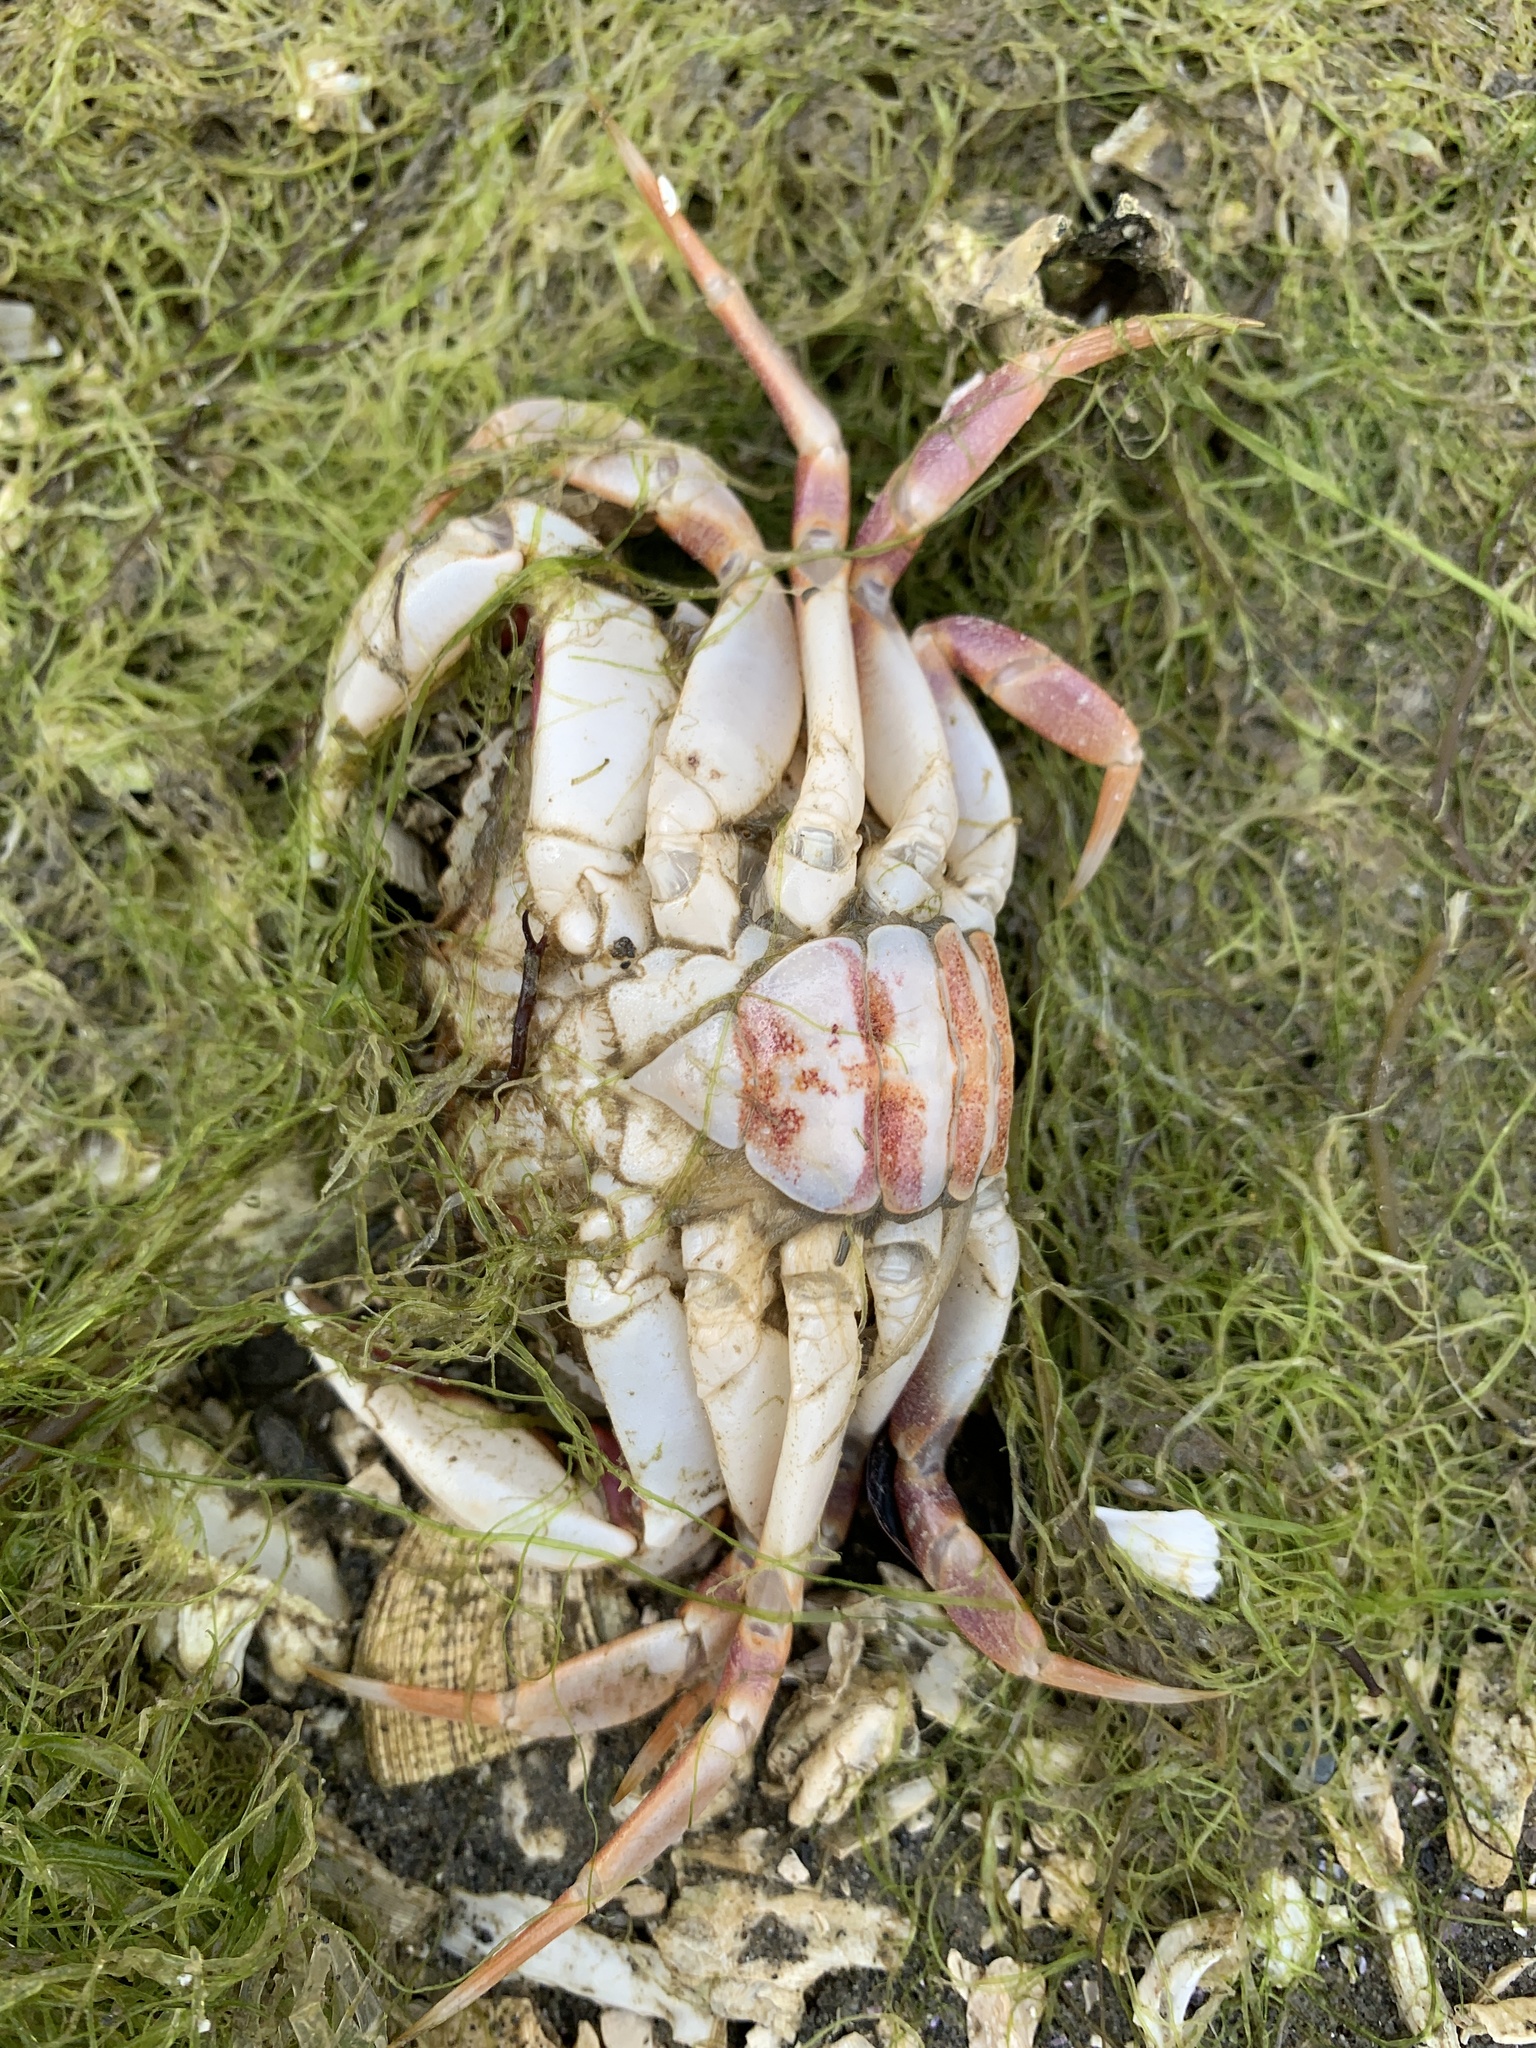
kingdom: Animalia
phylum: Arthropoda
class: Malacostraca
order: Decapoda
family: Cancridae
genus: Metacarcinus
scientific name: Metacarcinus gracilis
